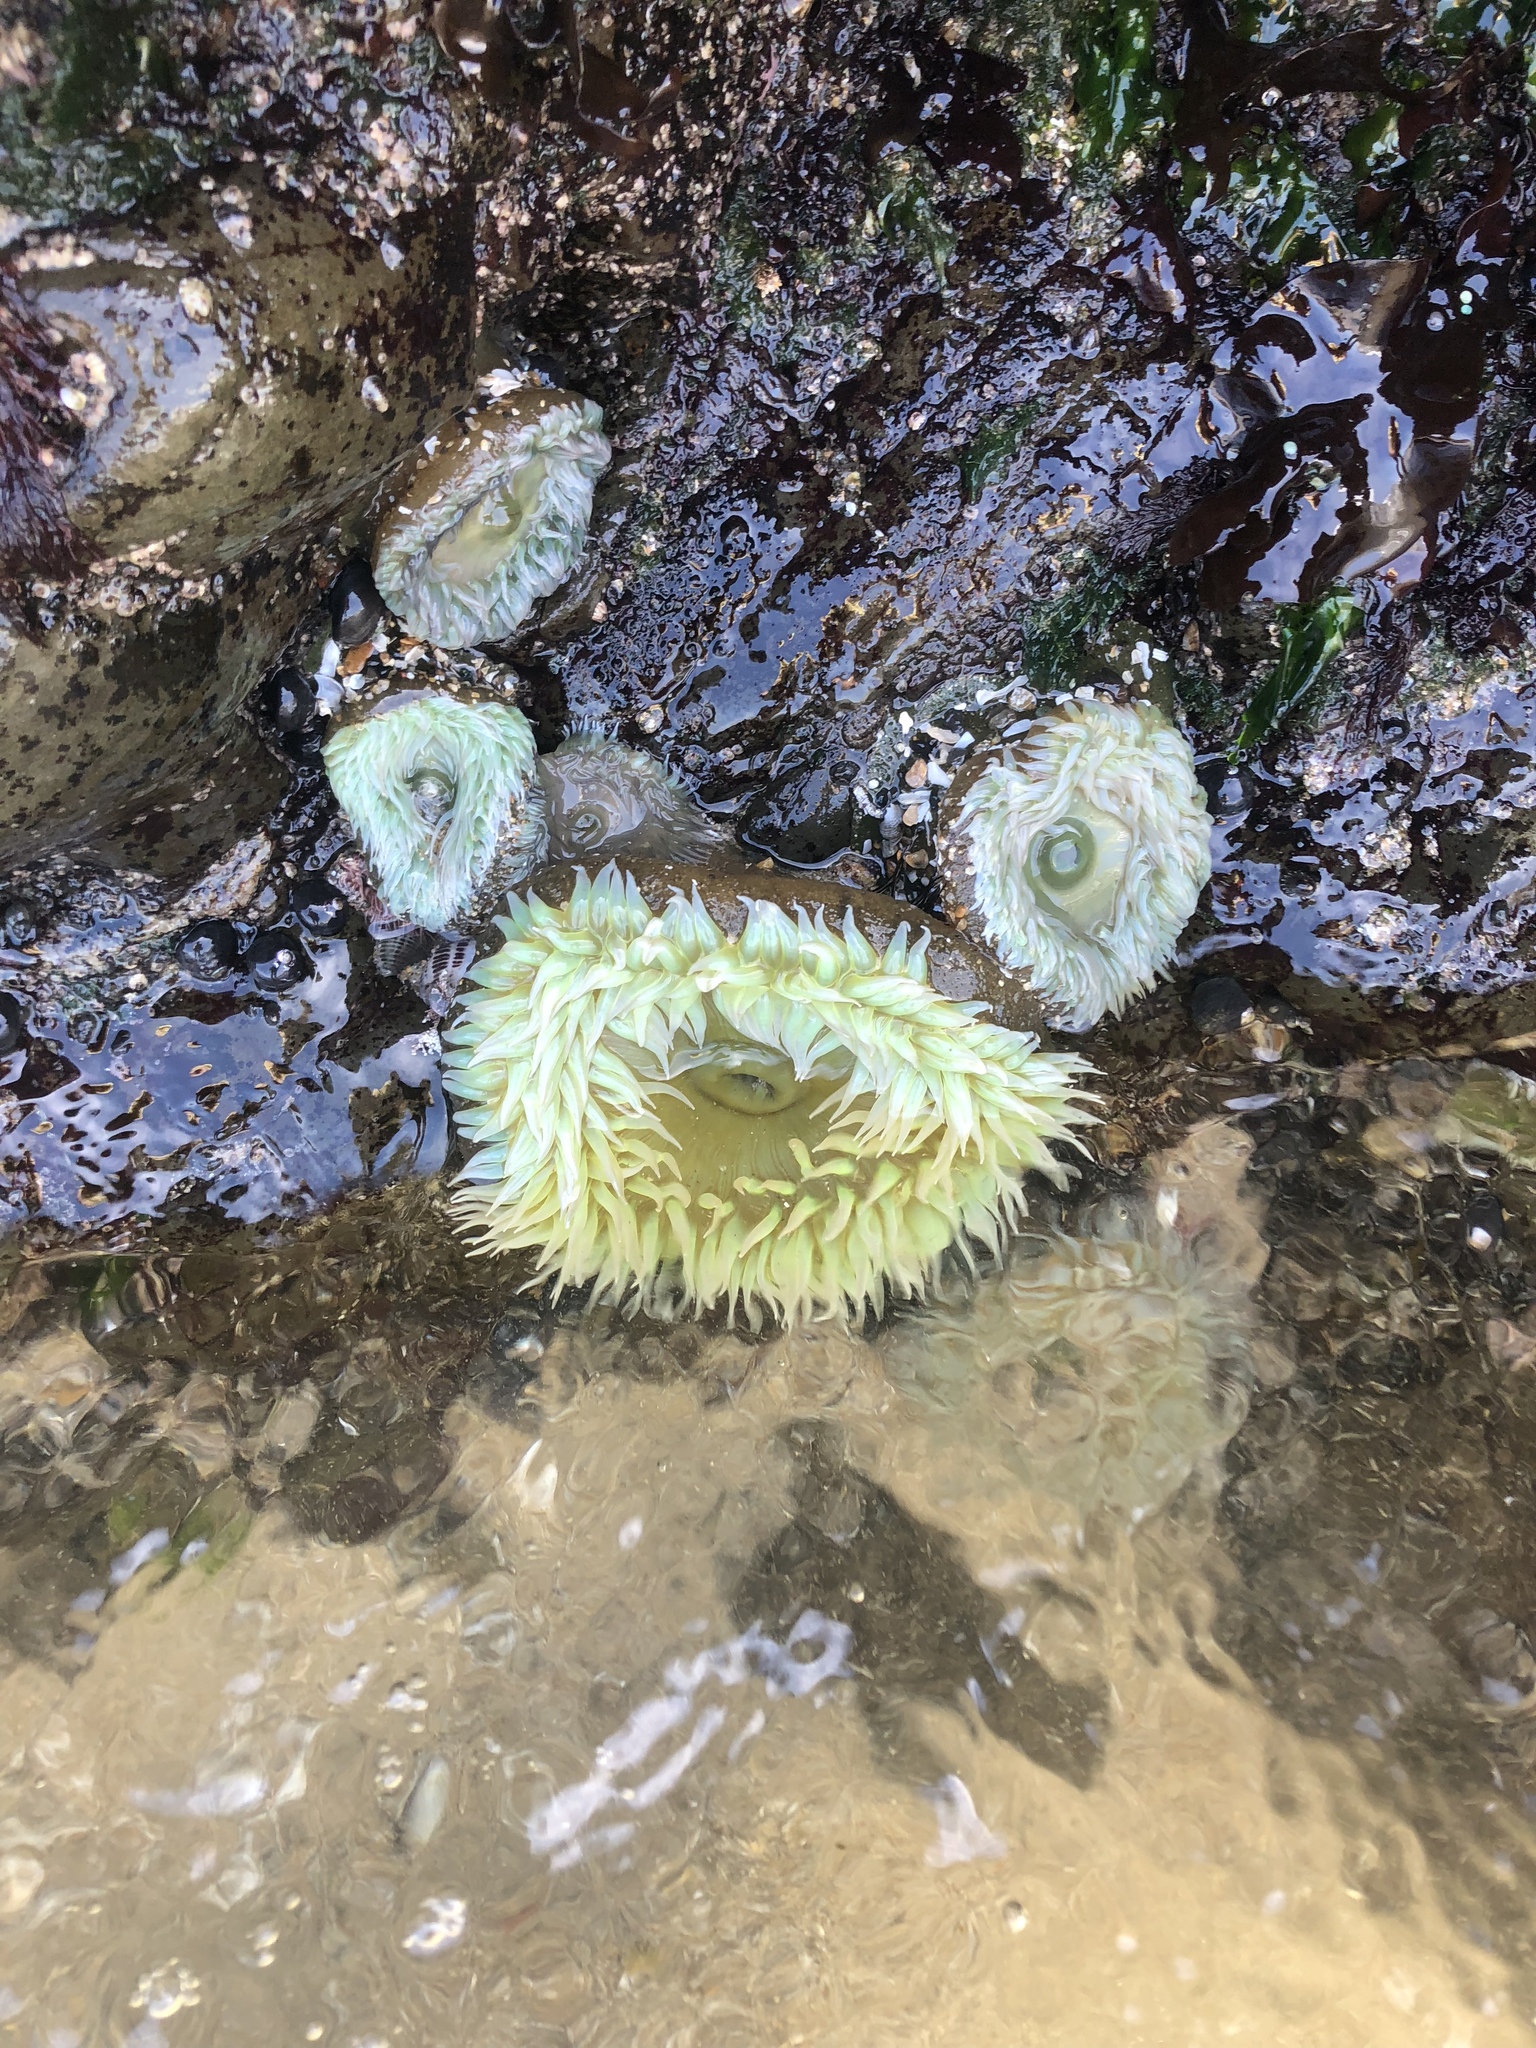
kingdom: Animalia
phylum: Cnidaria
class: Anthozoa
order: Actiniaria
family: Actiniidae
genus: Anthopleura
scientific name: Anthopleura xanthogrammica
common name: Giant green anemone
